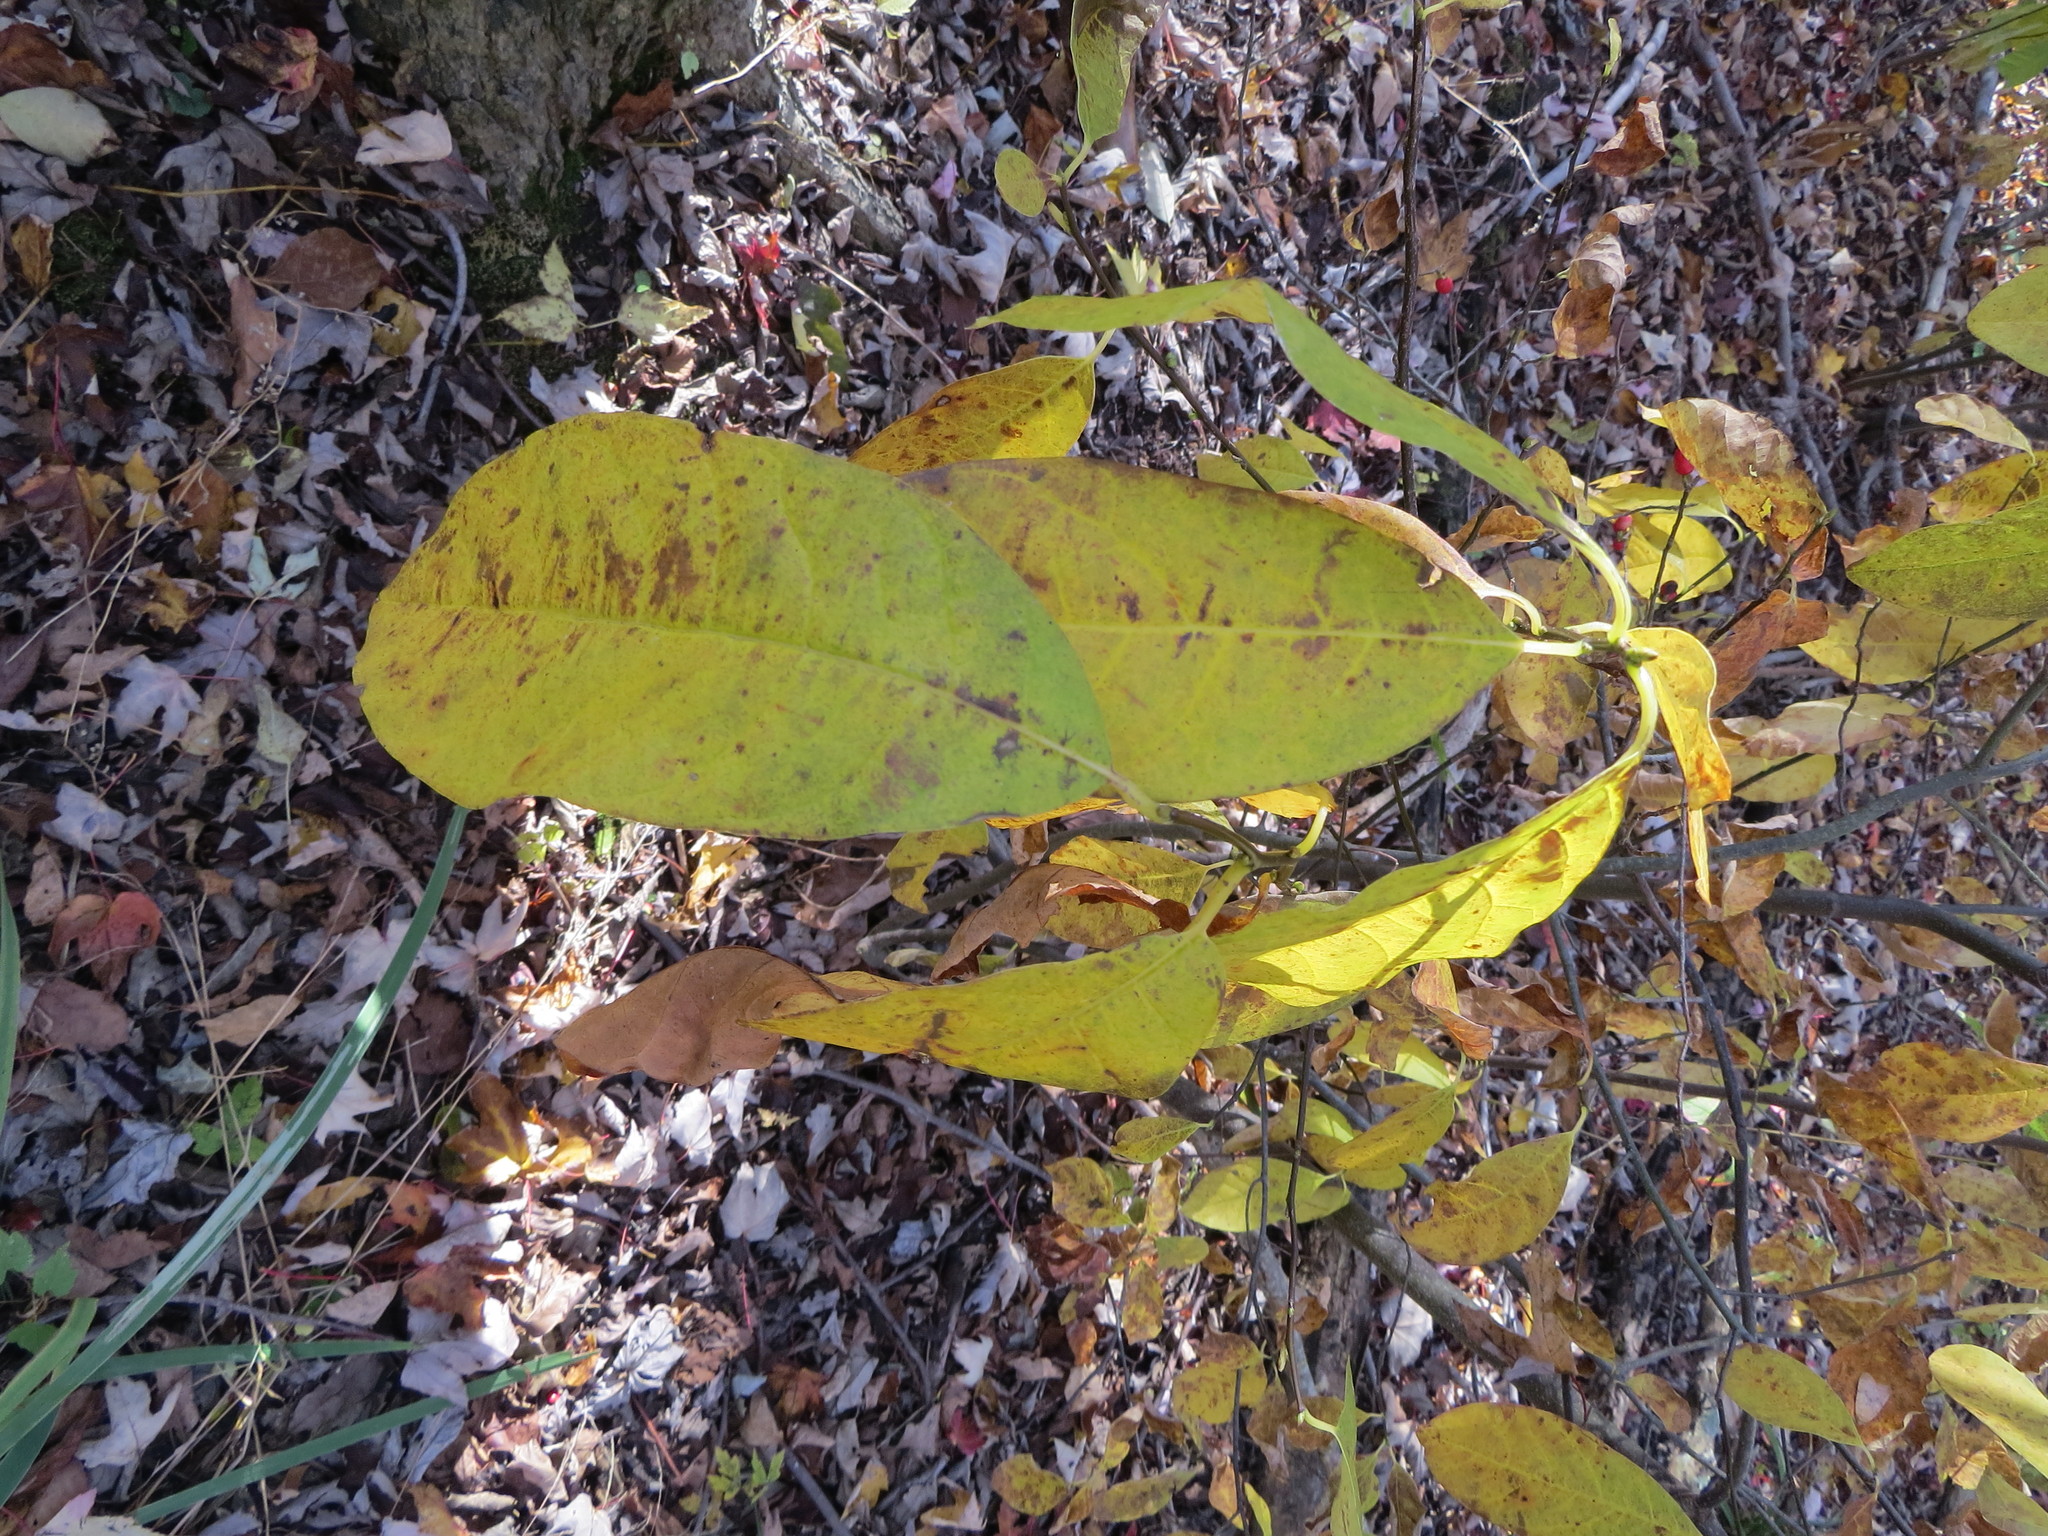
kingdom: Plantae
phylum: Tracheophyta
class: Magnoliopsida
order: Laurales
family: Lauraceae
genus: Lindera
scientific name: Lindera benzoin
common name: Spicebush
